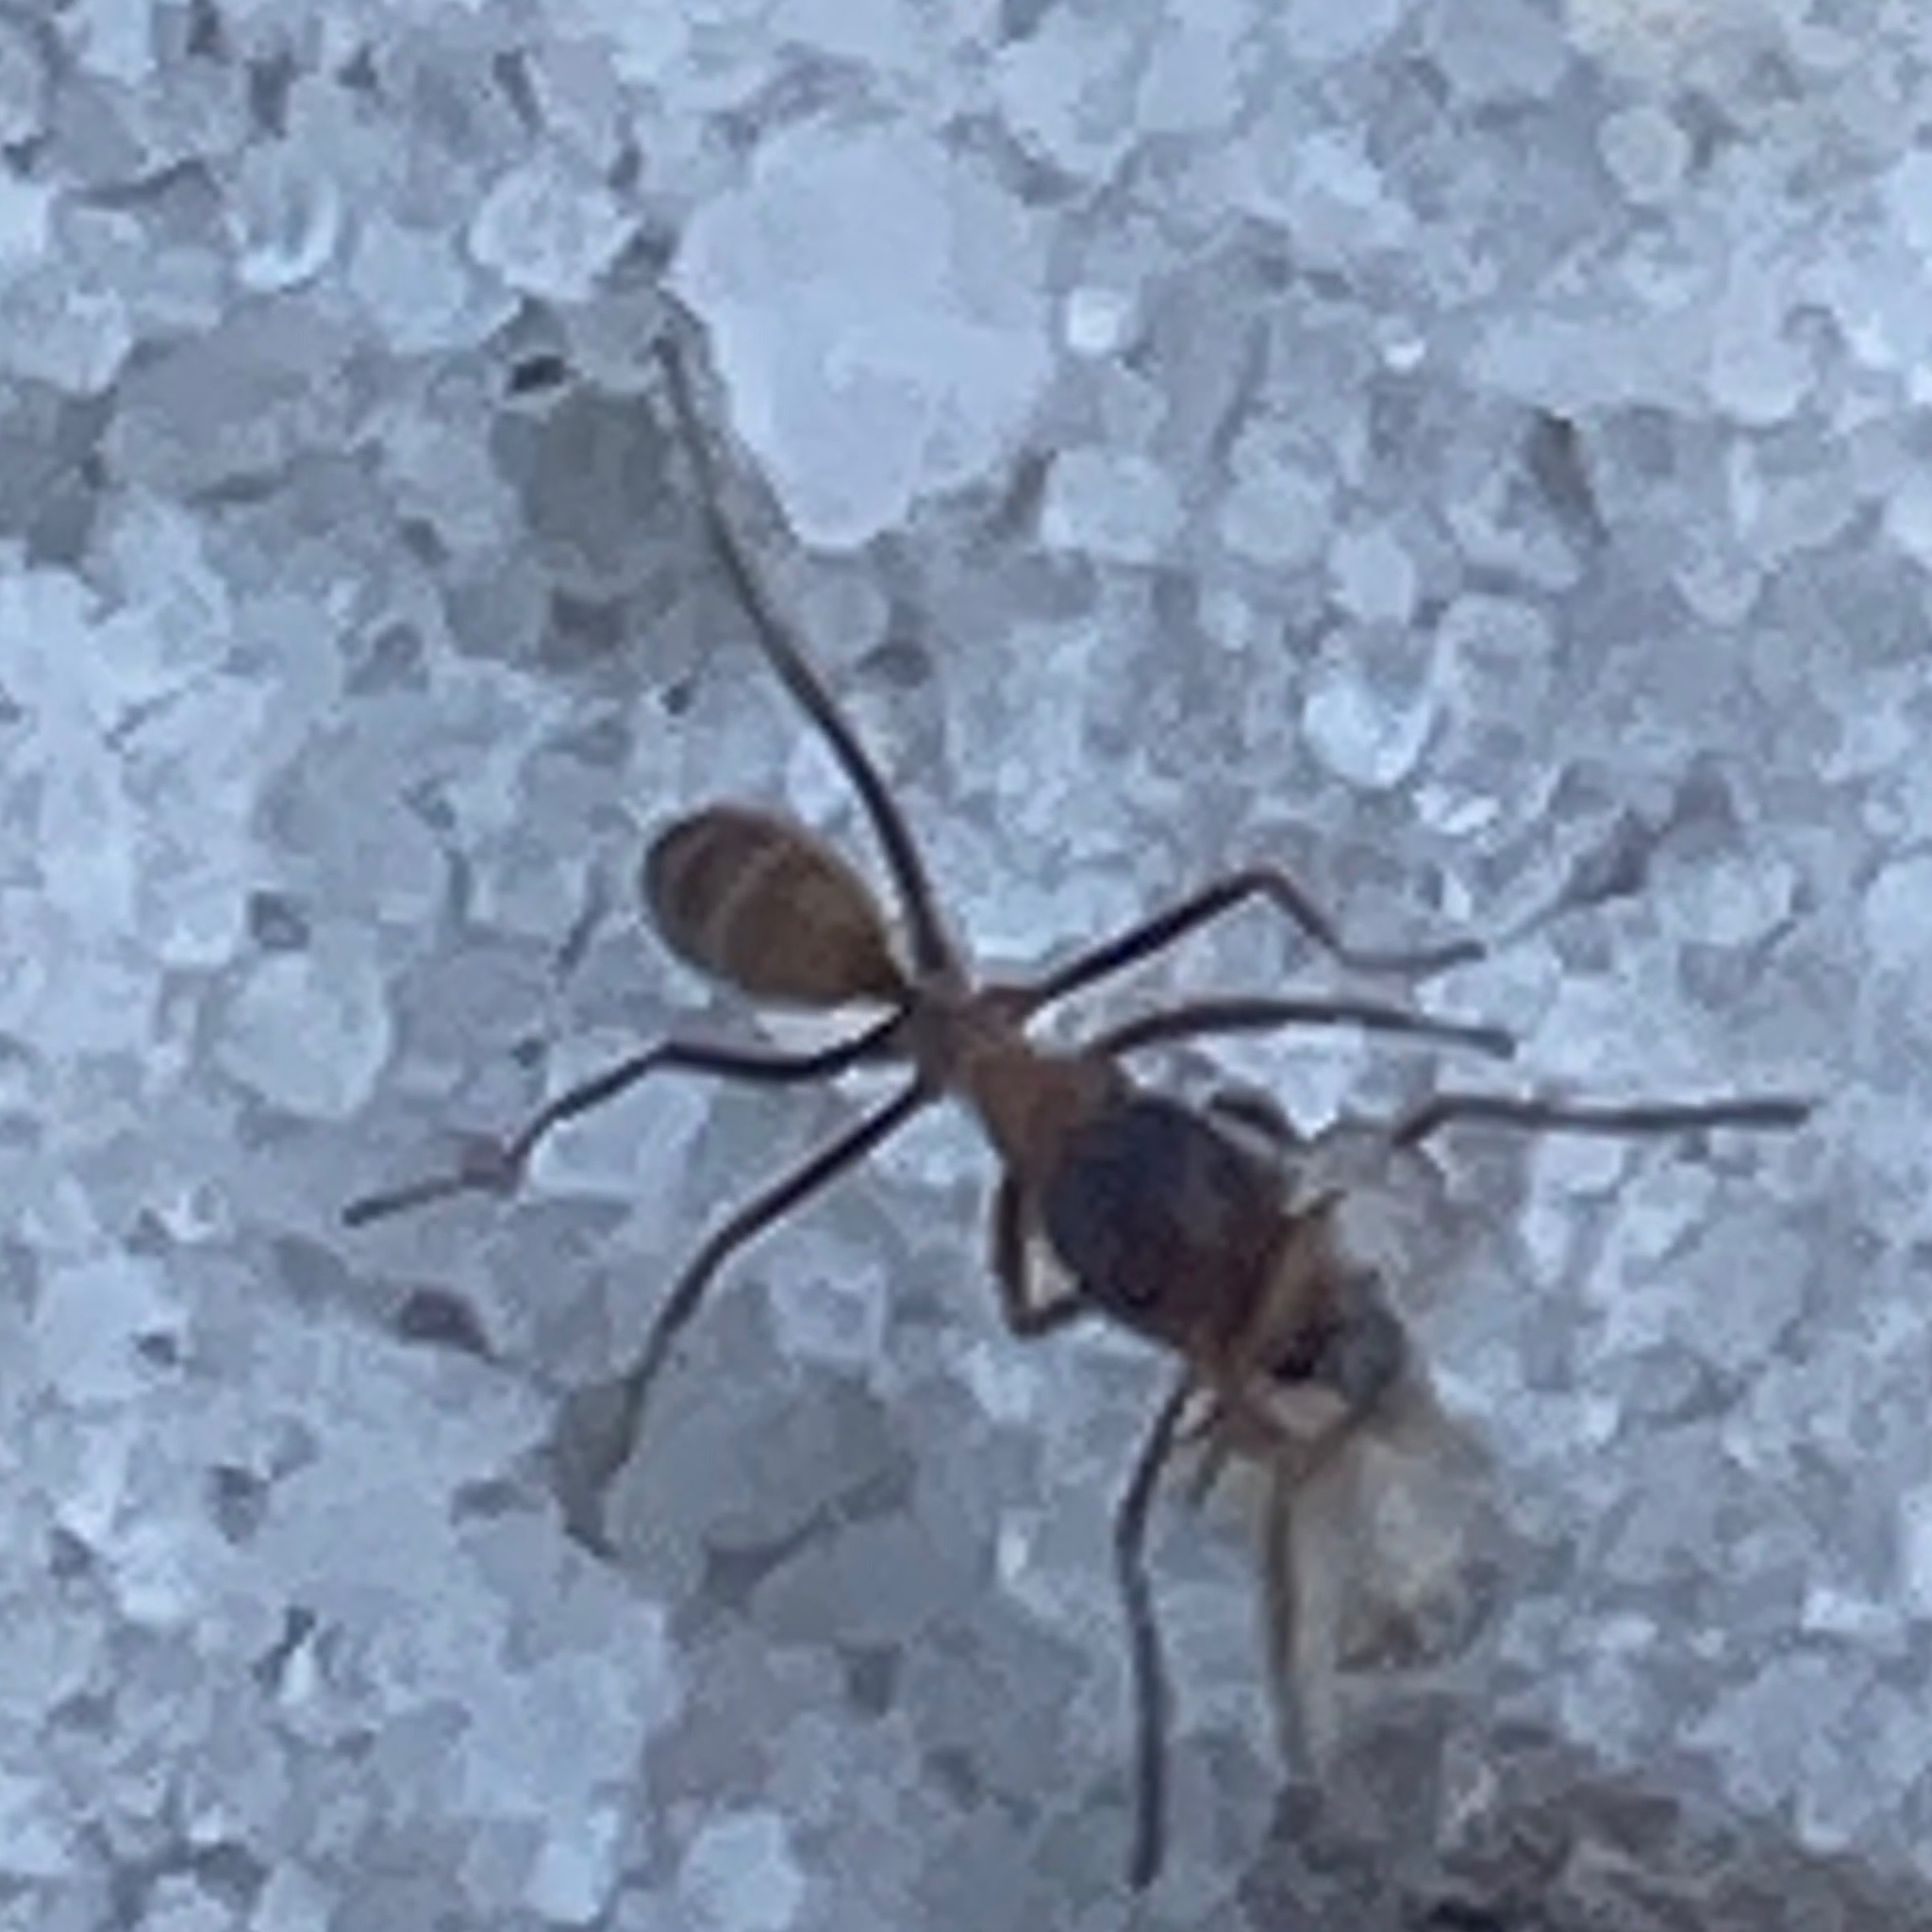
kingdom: Animalia
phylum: Arthropoda
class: Insecta
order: Hymenoptera
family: Formicidae
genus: Dorymyrmex
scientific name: Dorymyrmex bureni
